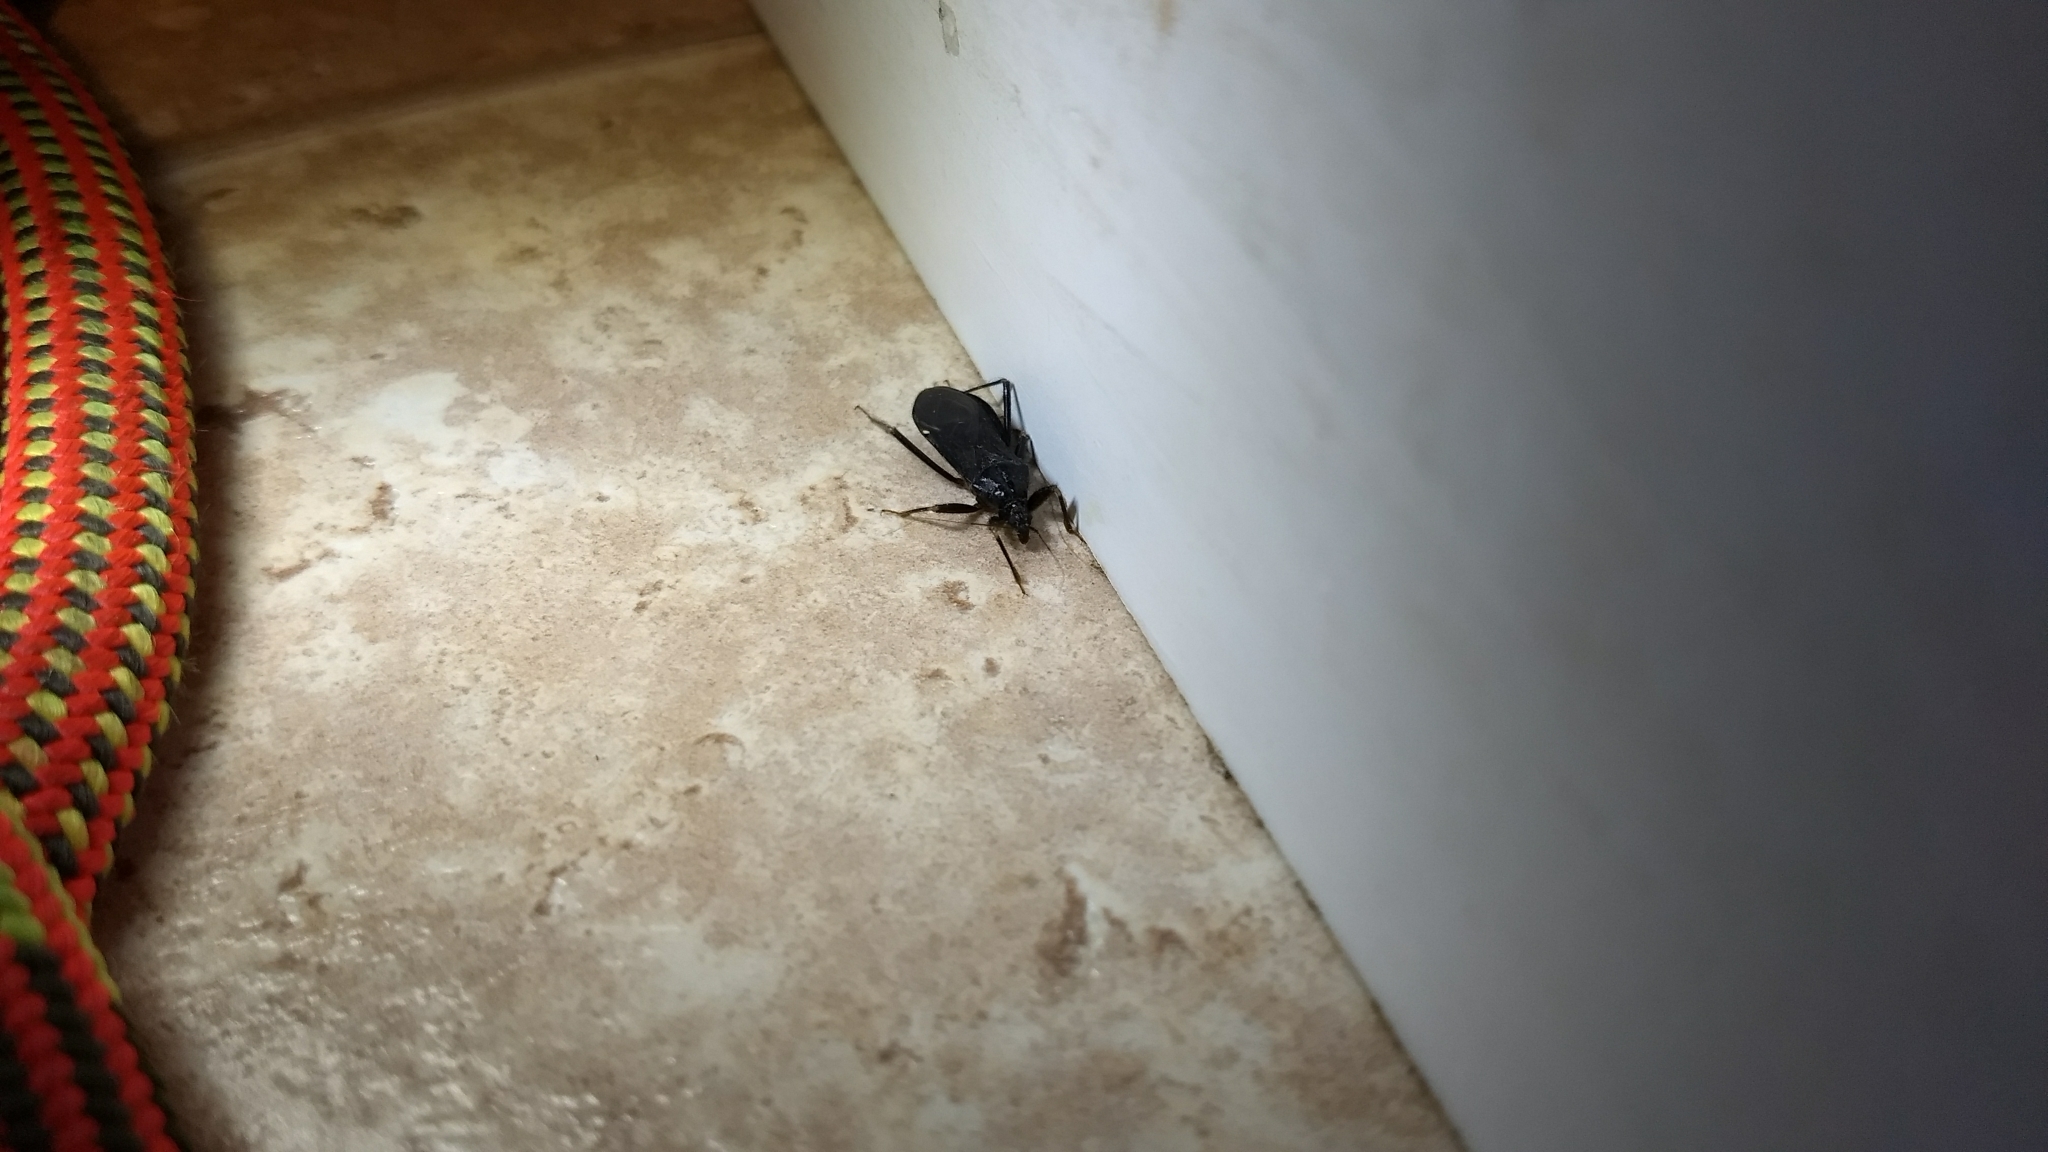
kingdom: Animalia
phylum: Arthropoda
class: Insecta
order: Hemiptera
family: Reduviidae
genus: Reduvius
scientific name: Reduvius personatus
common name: Masked hunter
